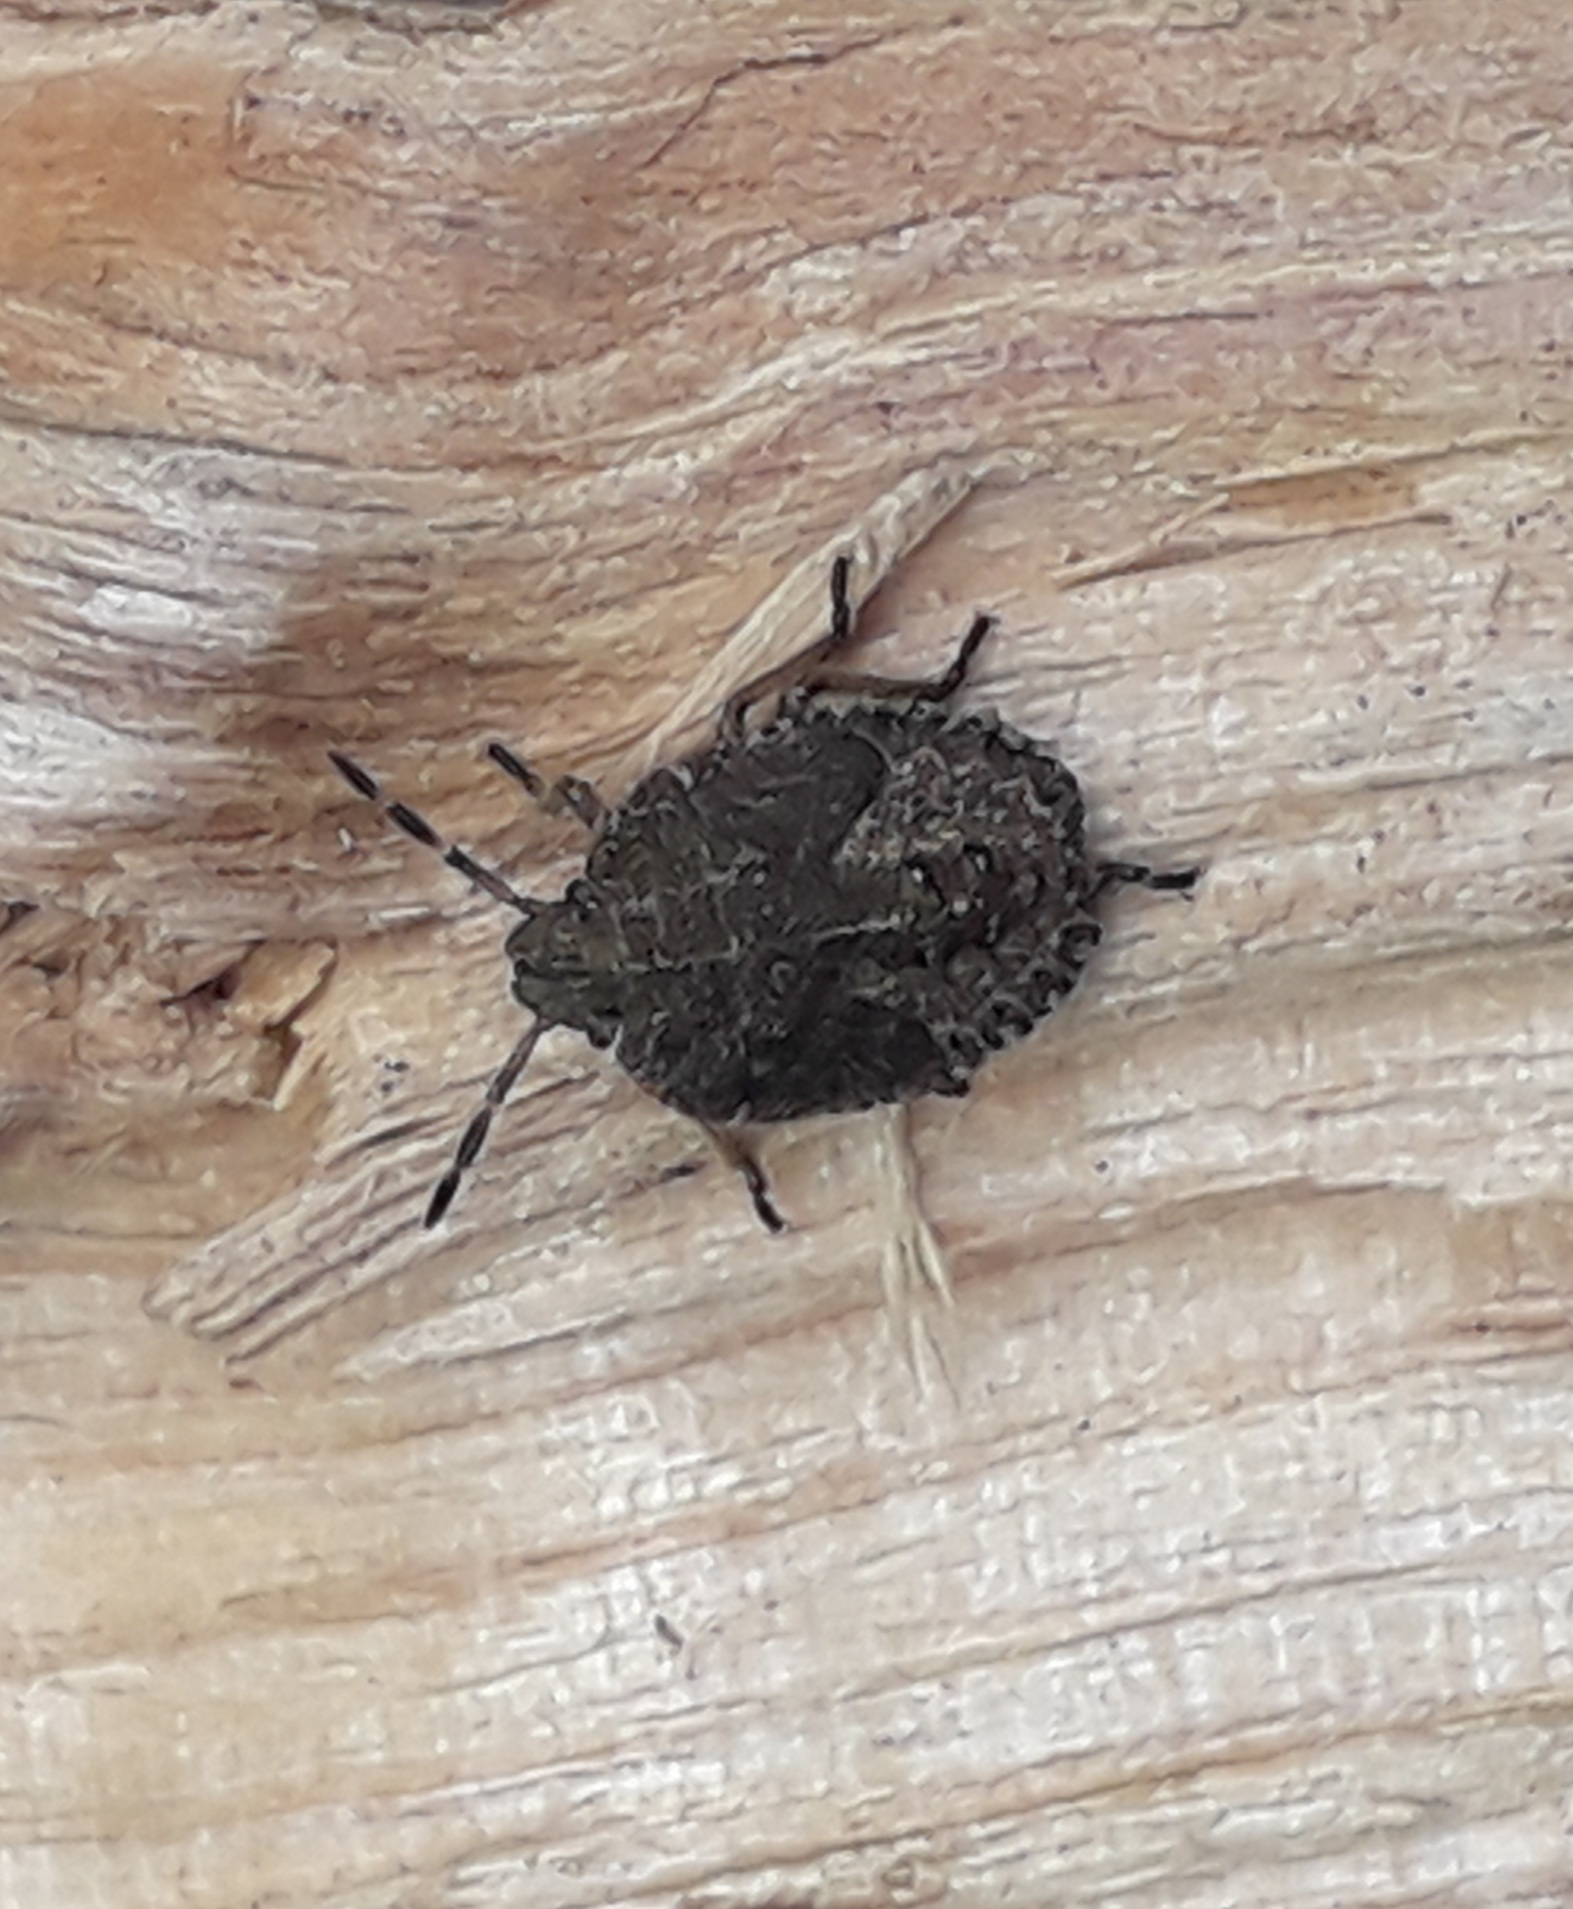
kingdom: Animalia
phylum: Arthropoda
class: Insecta
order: Hemiptera
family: Pentatomidae
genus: Rhaphigaster
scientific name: Rhaphigaster nebulosa
